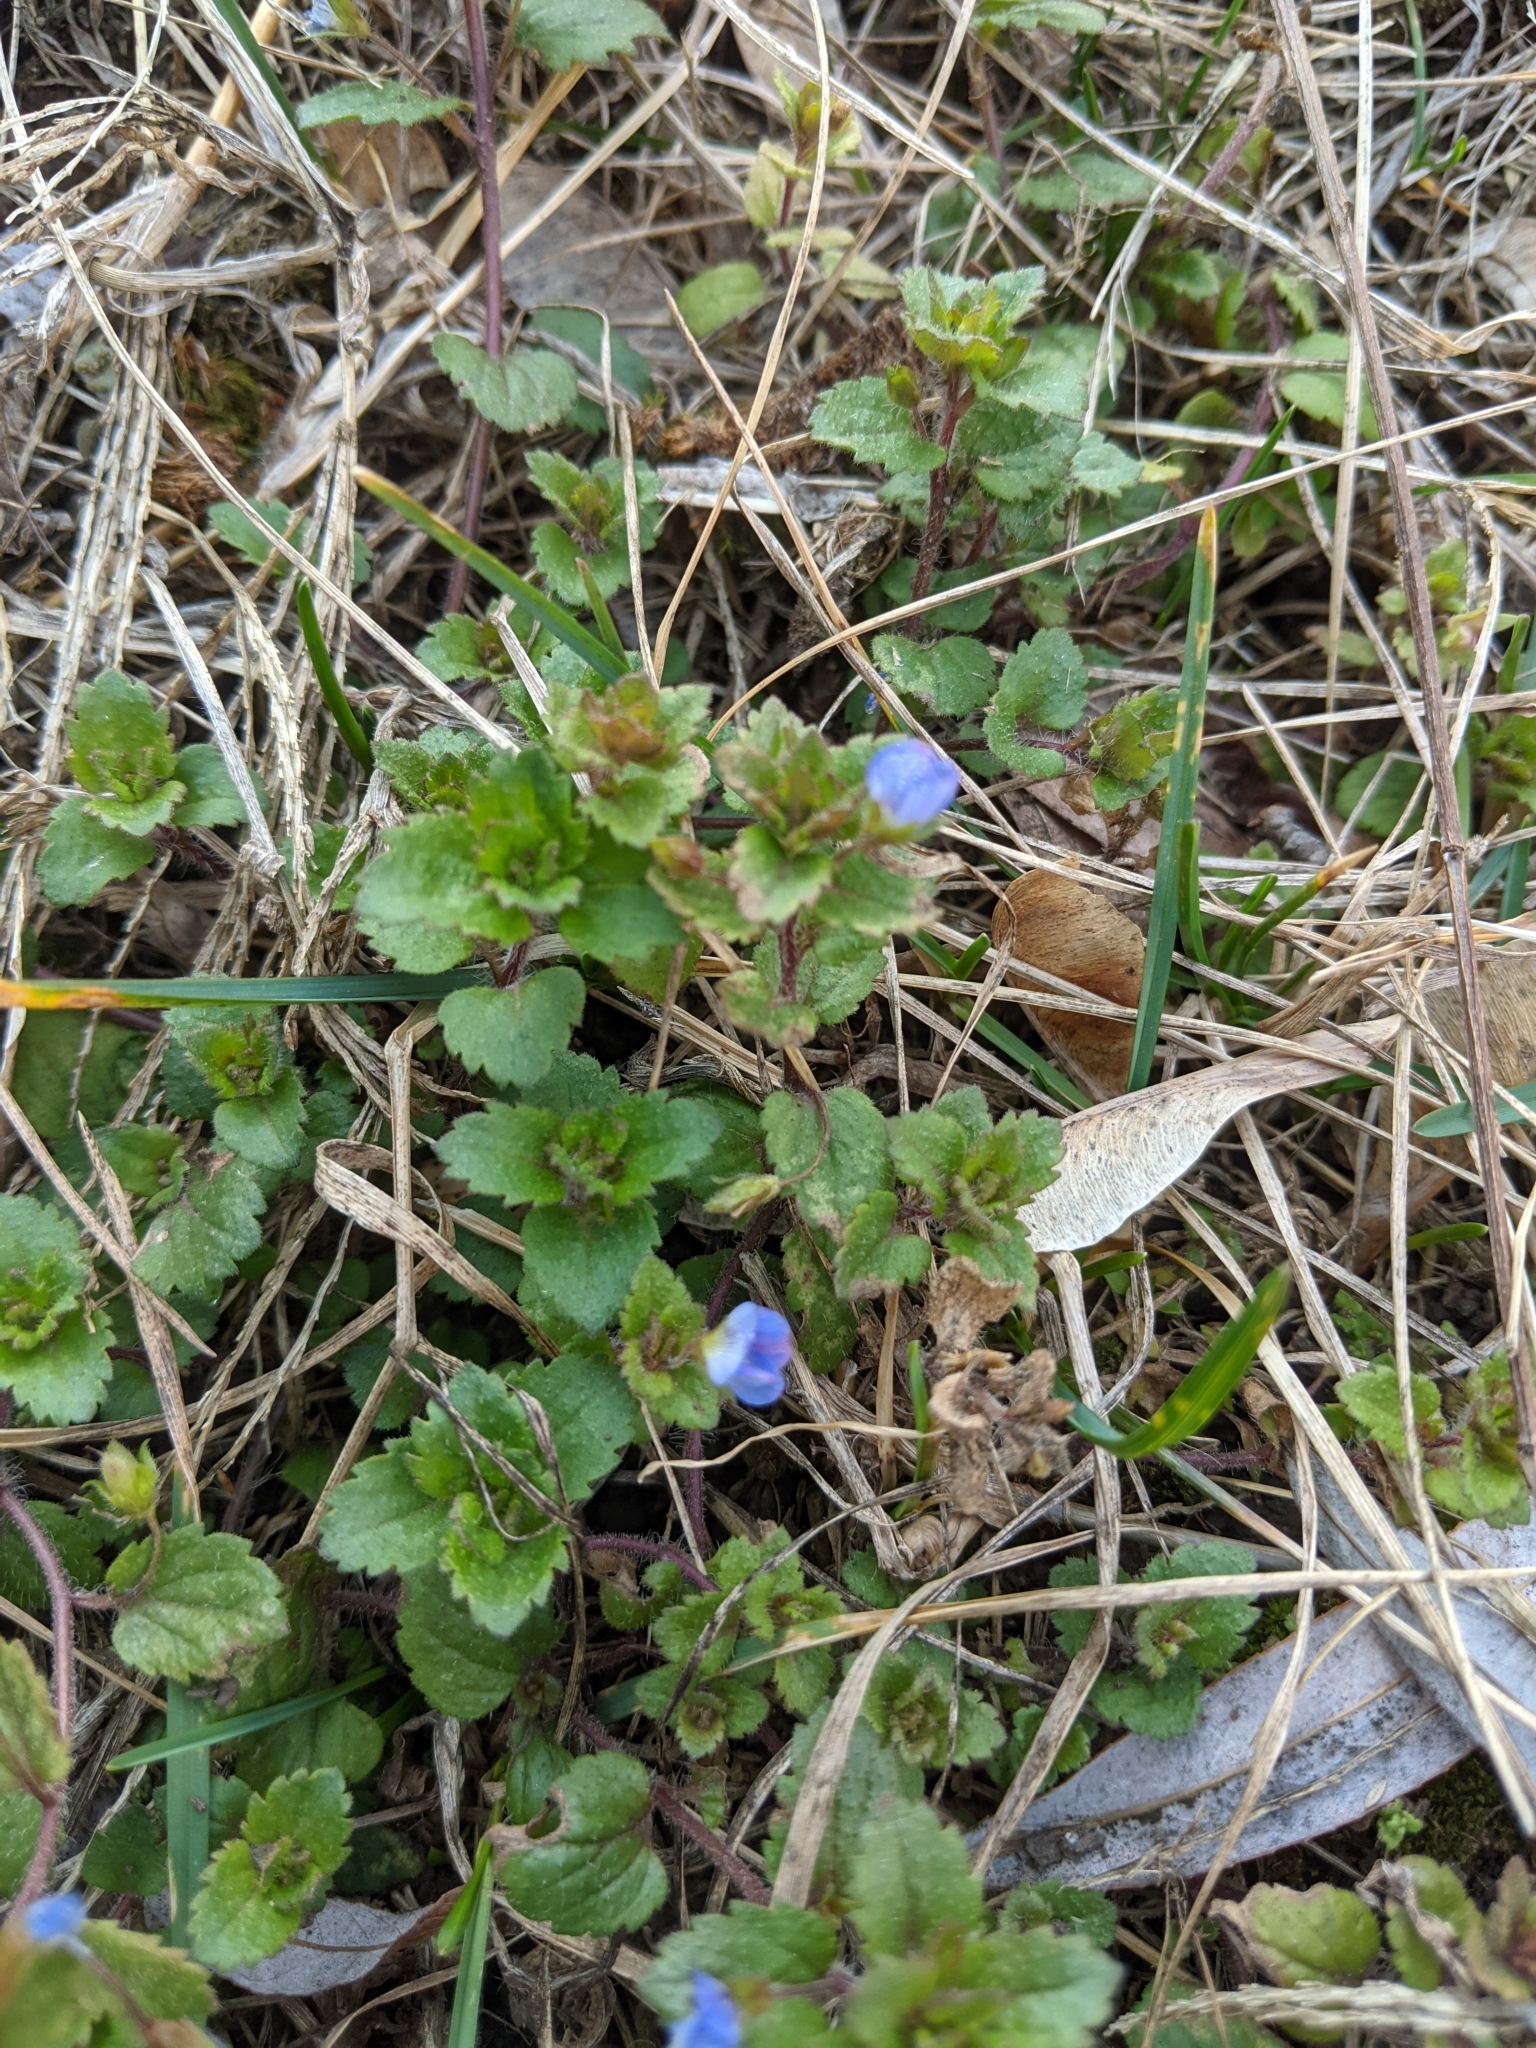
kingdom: Plantae
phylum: Tracheophyta
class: Magnoliopsida
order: Lamiales
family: Plantaginaceae
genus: Veronica
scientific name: Veronica persica
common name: Common field-speedwell
